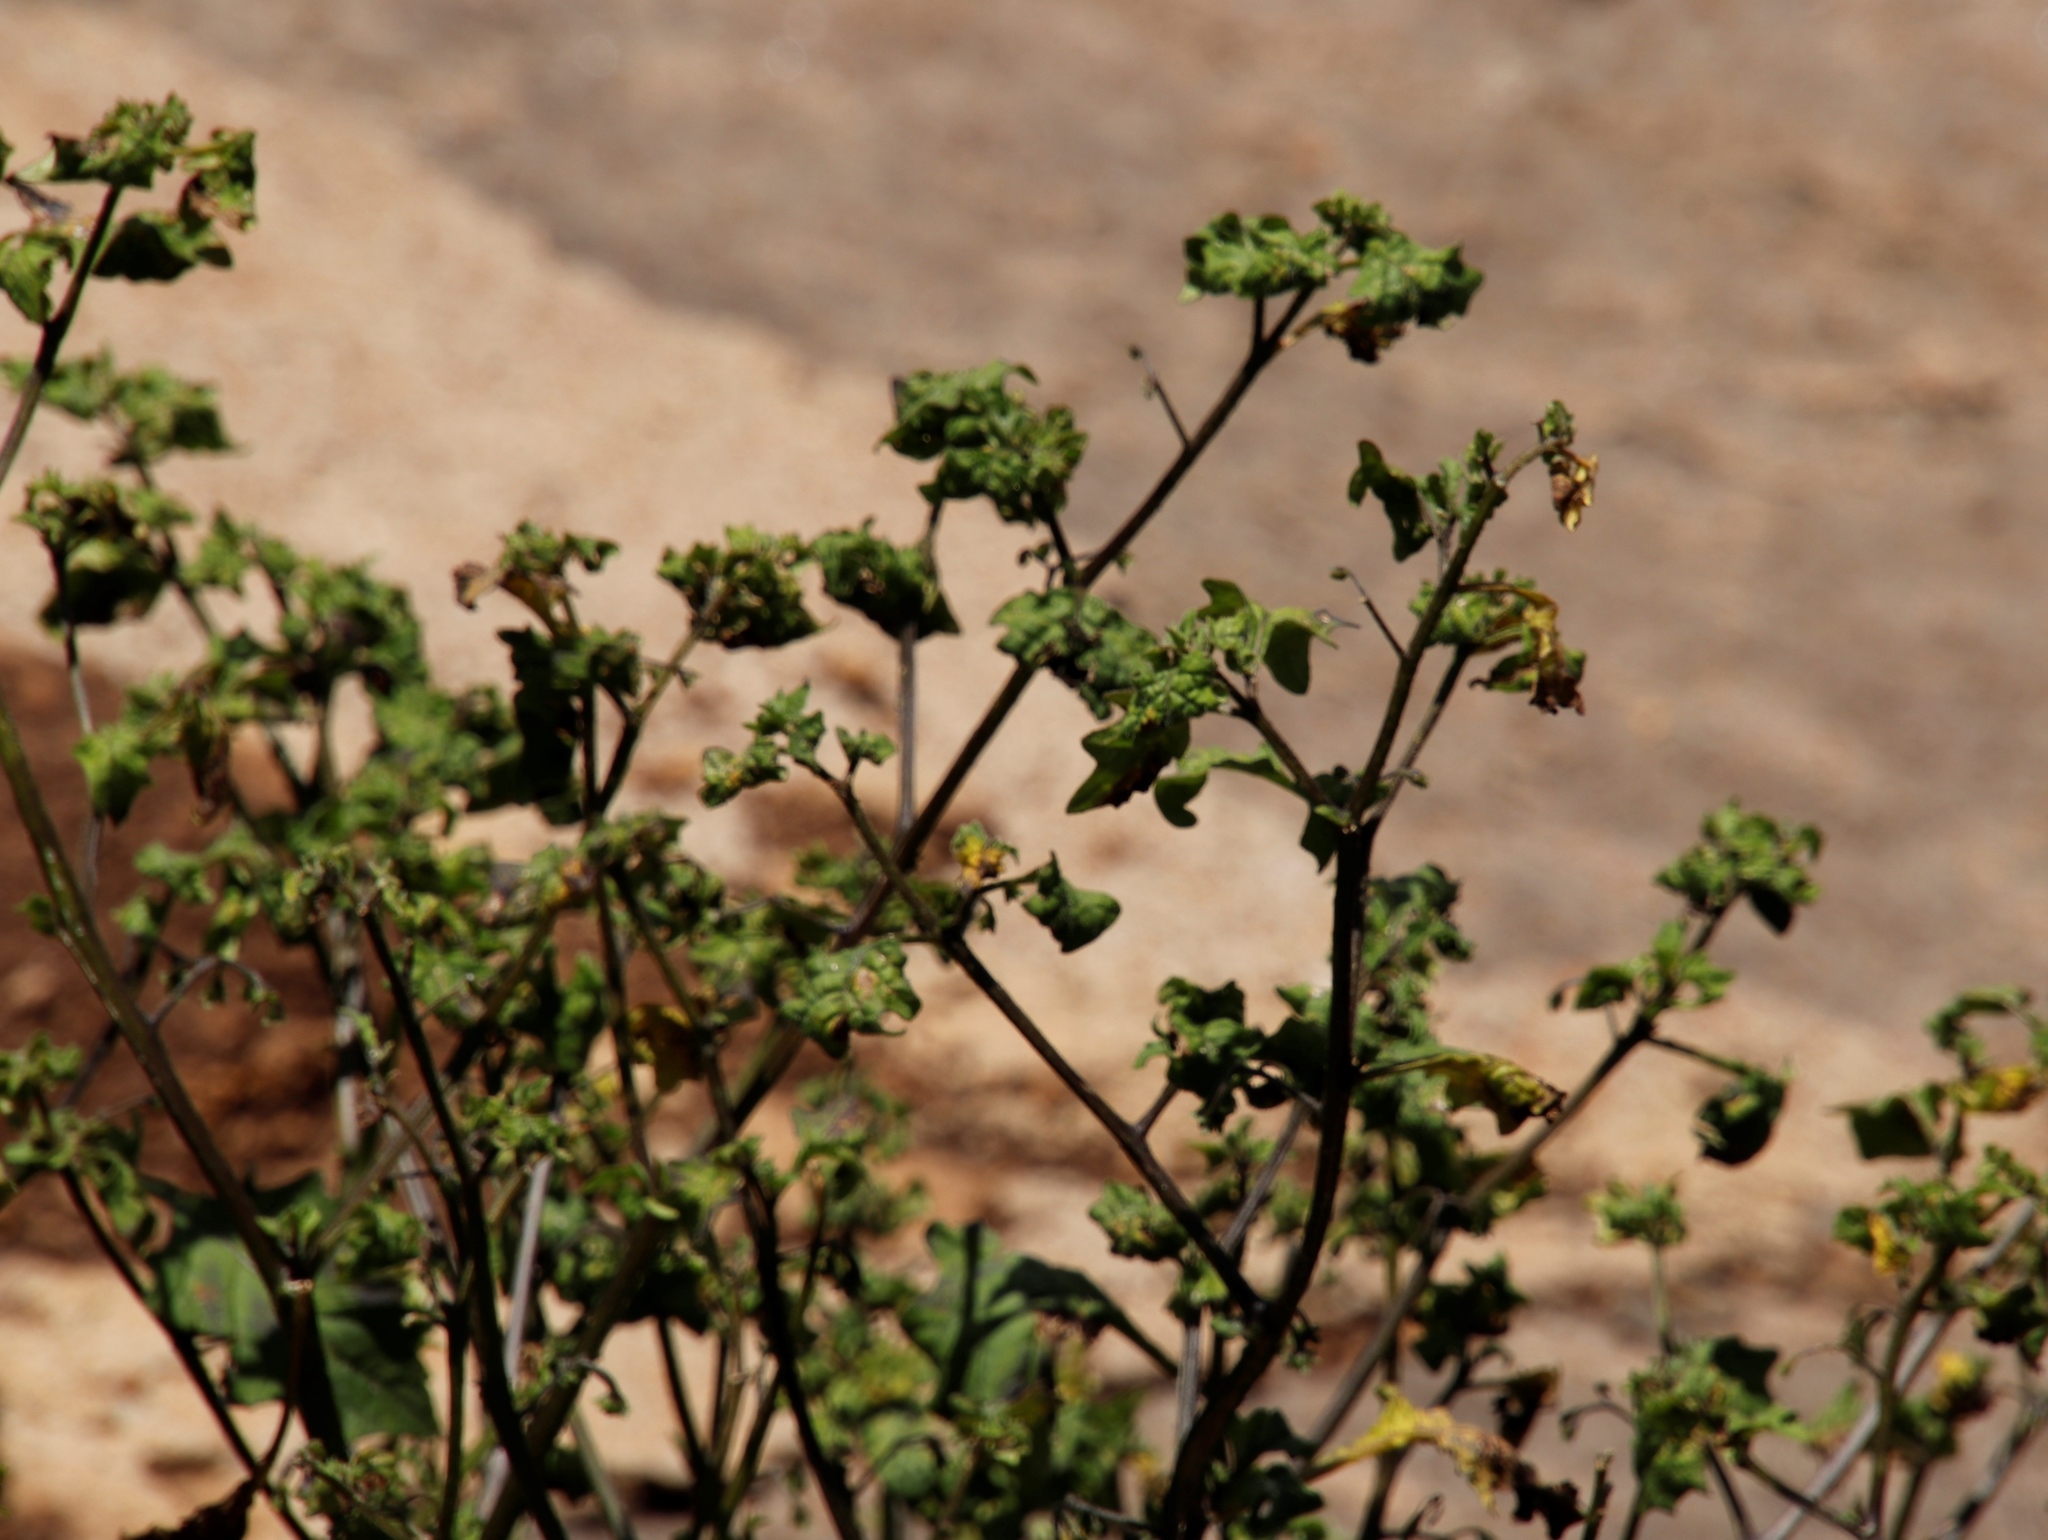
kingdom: Plantae
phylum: Tracheophyta
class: Magnoliopsida
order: Solanales
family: Solanaceae
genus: Solanum
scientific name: Solanum retroflexum
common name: Wonderberry
